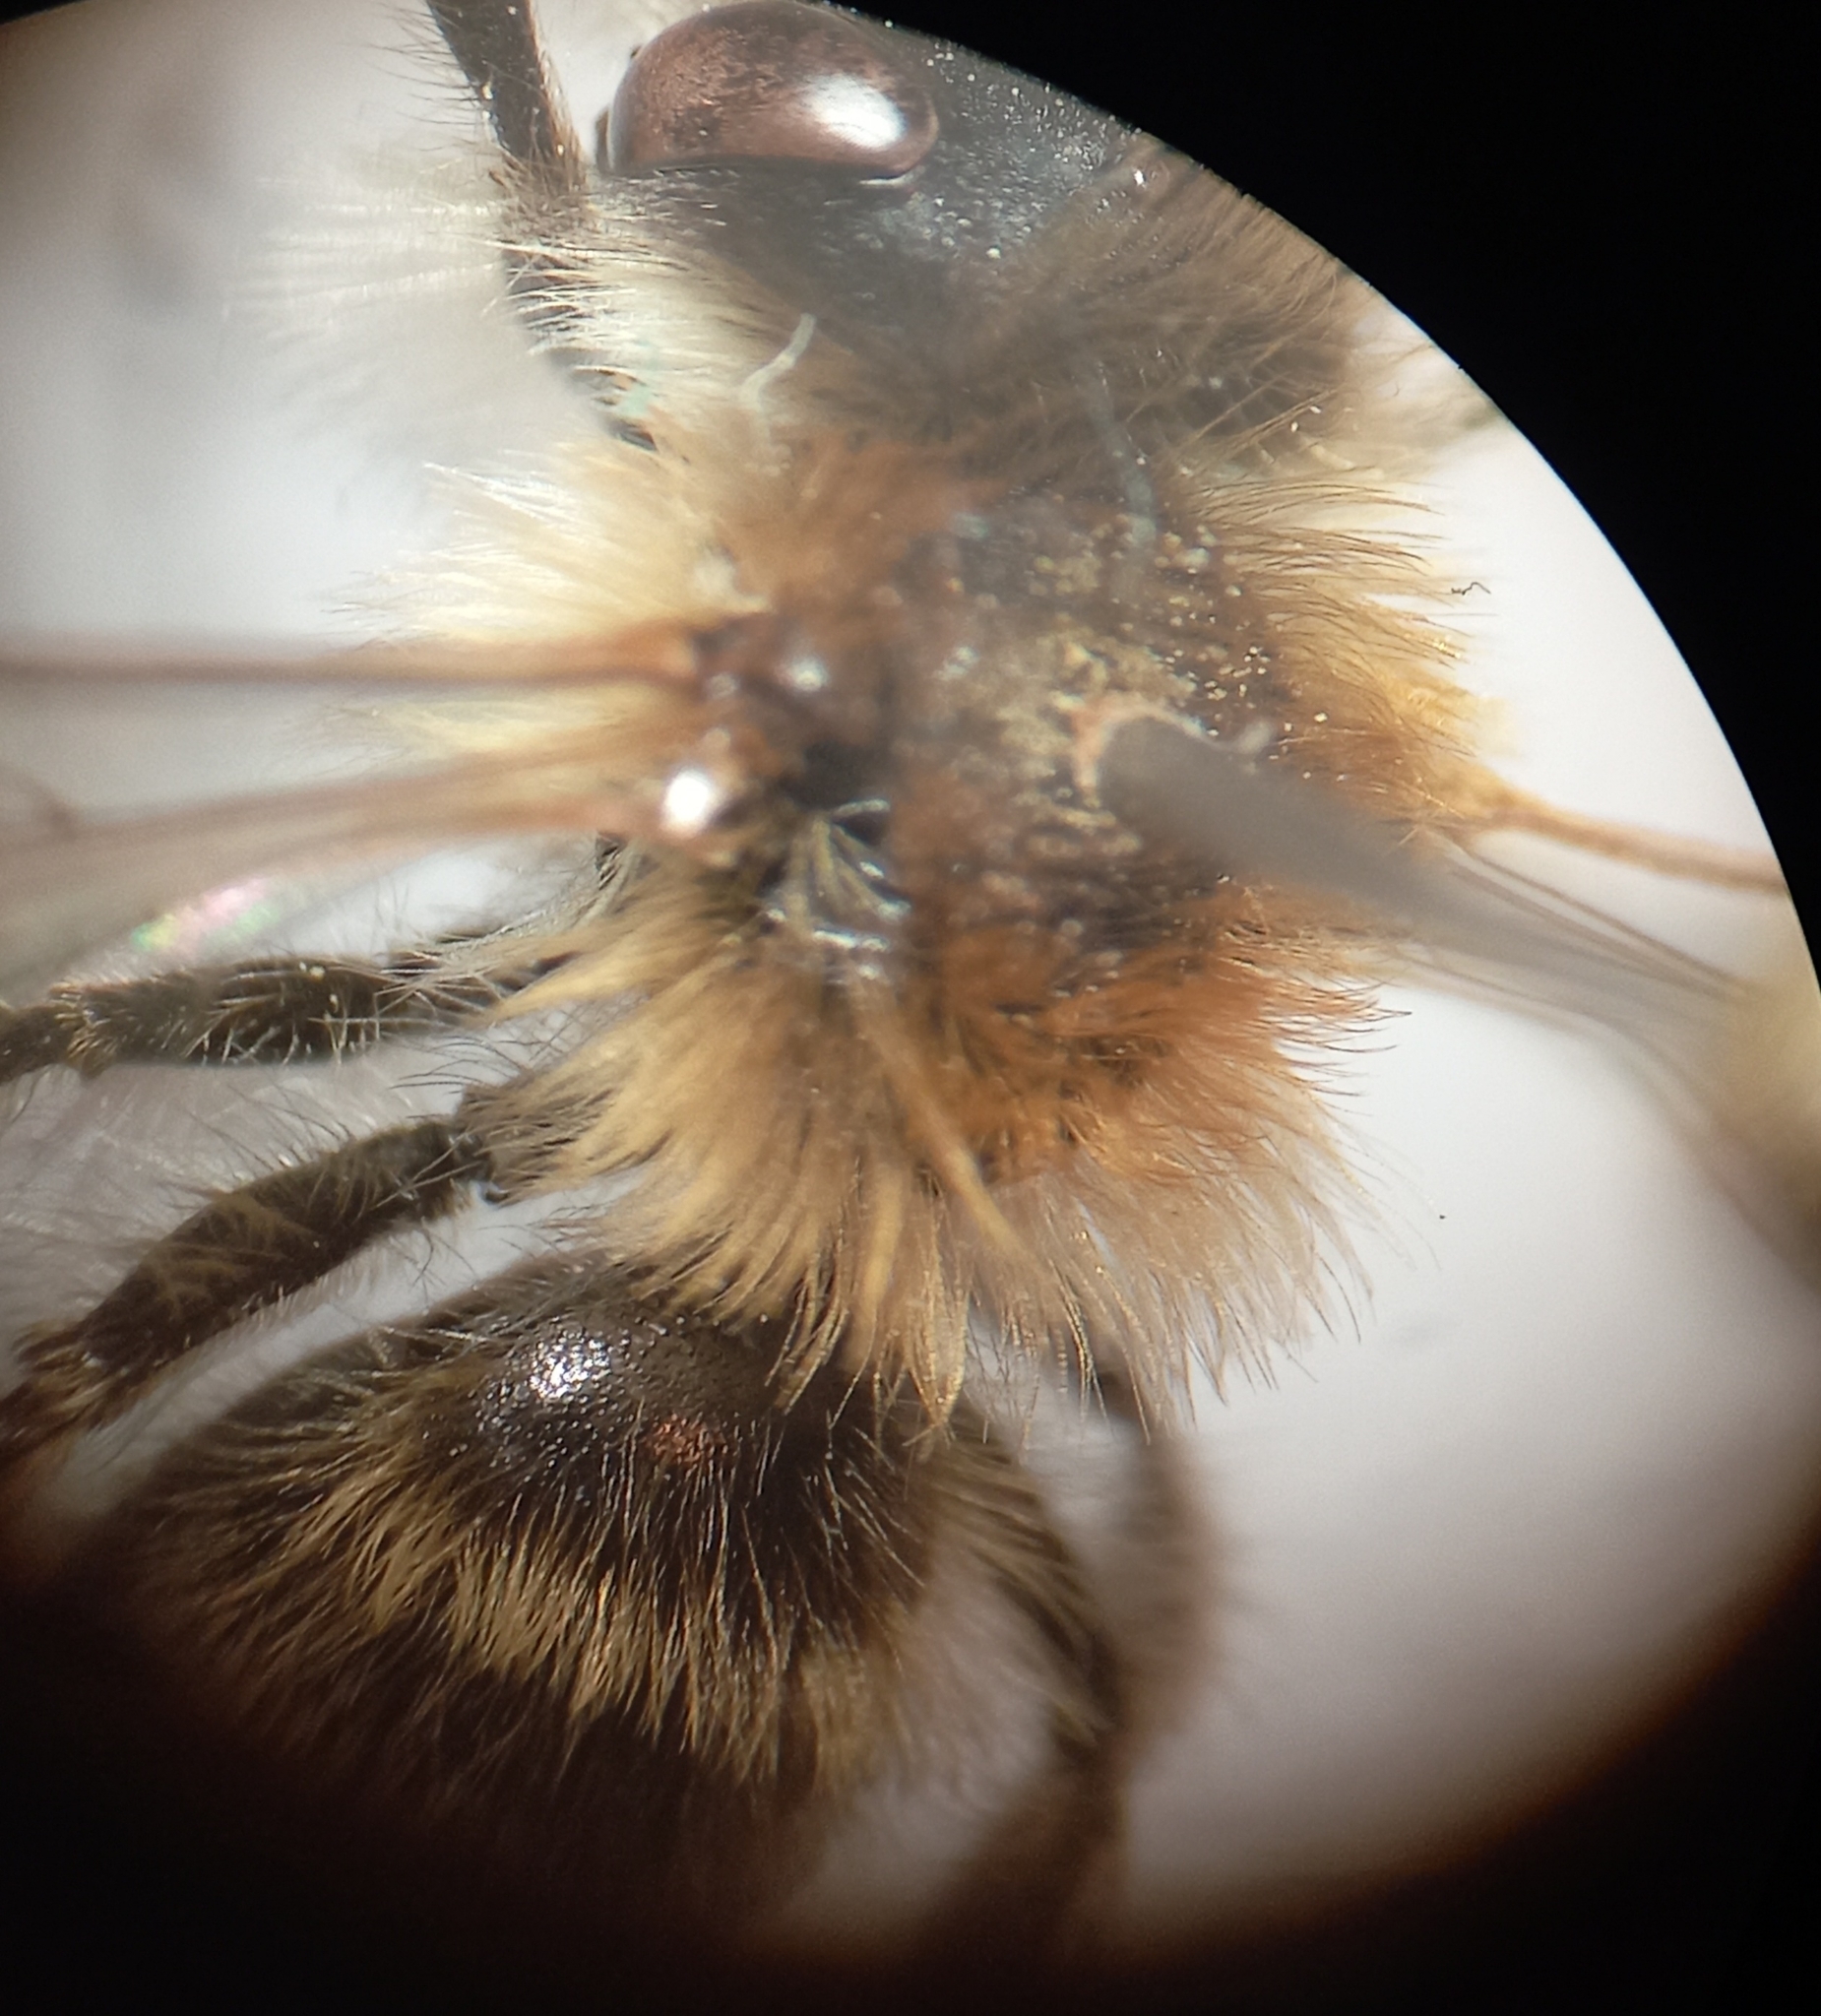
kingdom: Animalia
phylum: Arthropoda
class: Insecta
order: Hymenoptera
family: Andrenidae
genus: Andrena
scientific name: Andrena gravida
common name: White-bellied mining bee
